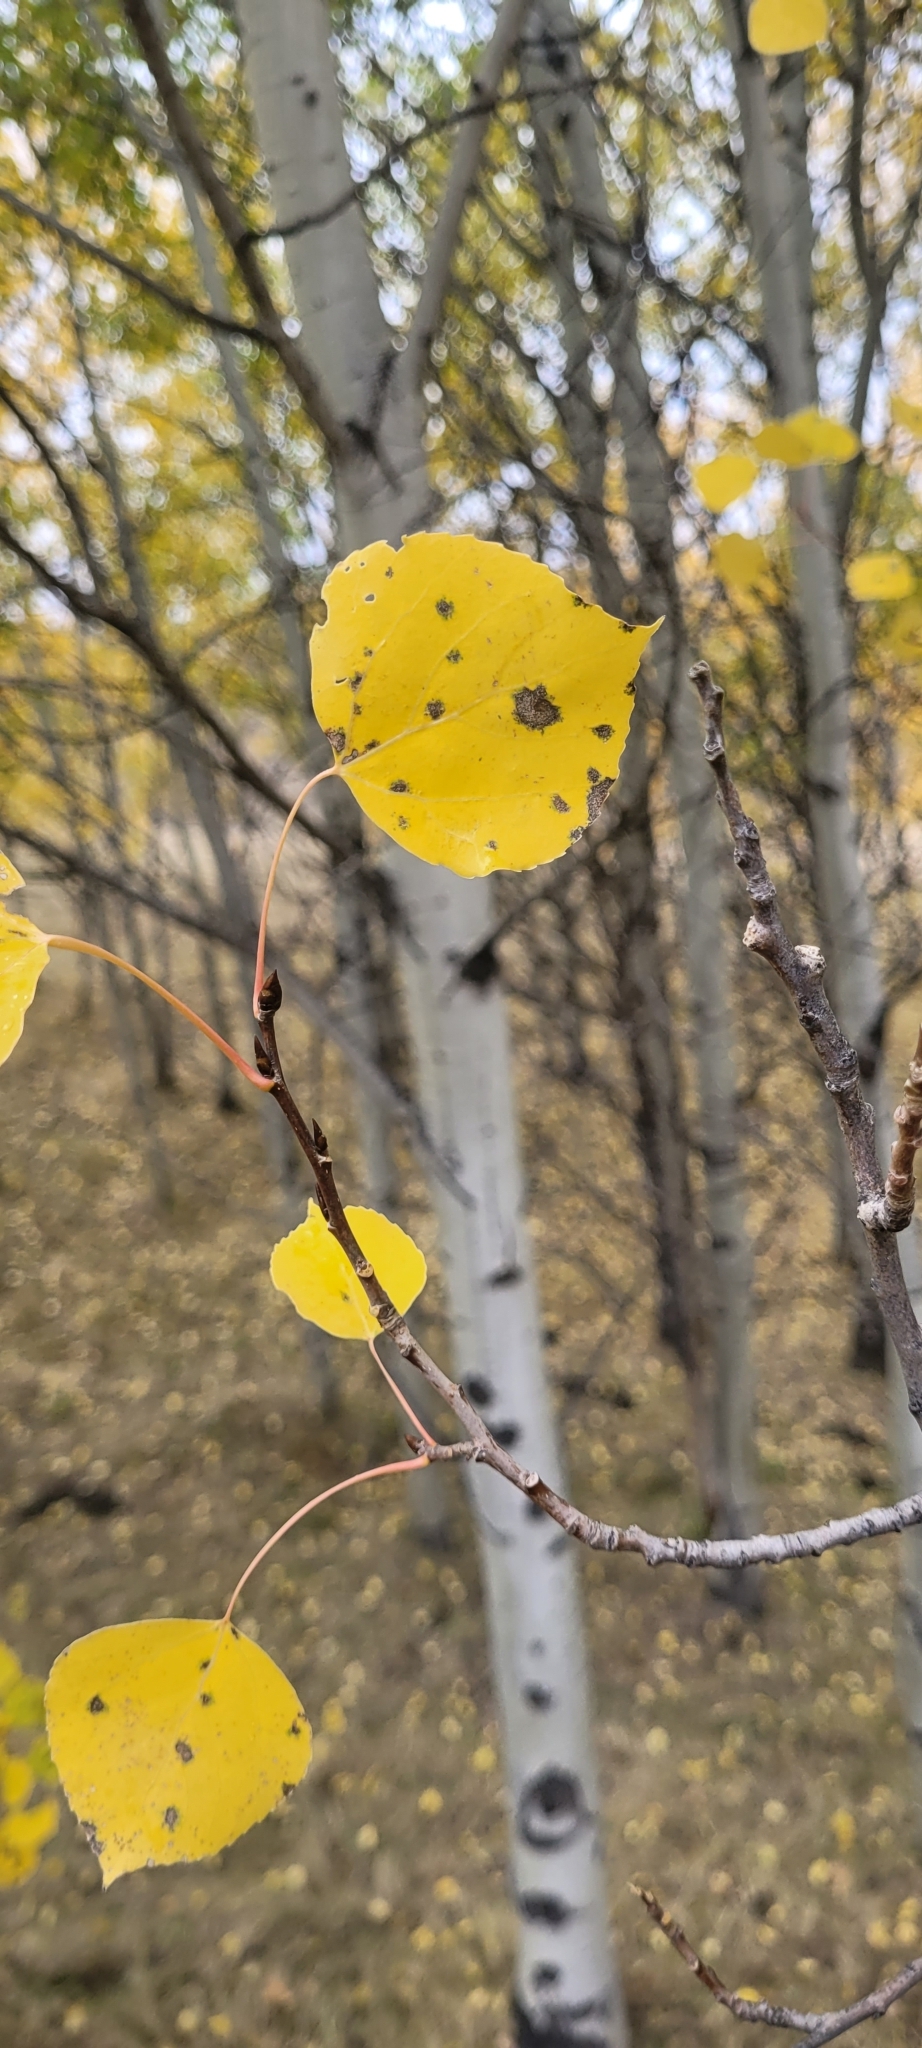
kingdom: Plantae
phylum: Tracheophyta
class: Magnoliopsida
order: Malpighiales
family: Salicaceae
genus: Populus
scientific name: Populus tremuloides
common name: Quaking aspen
